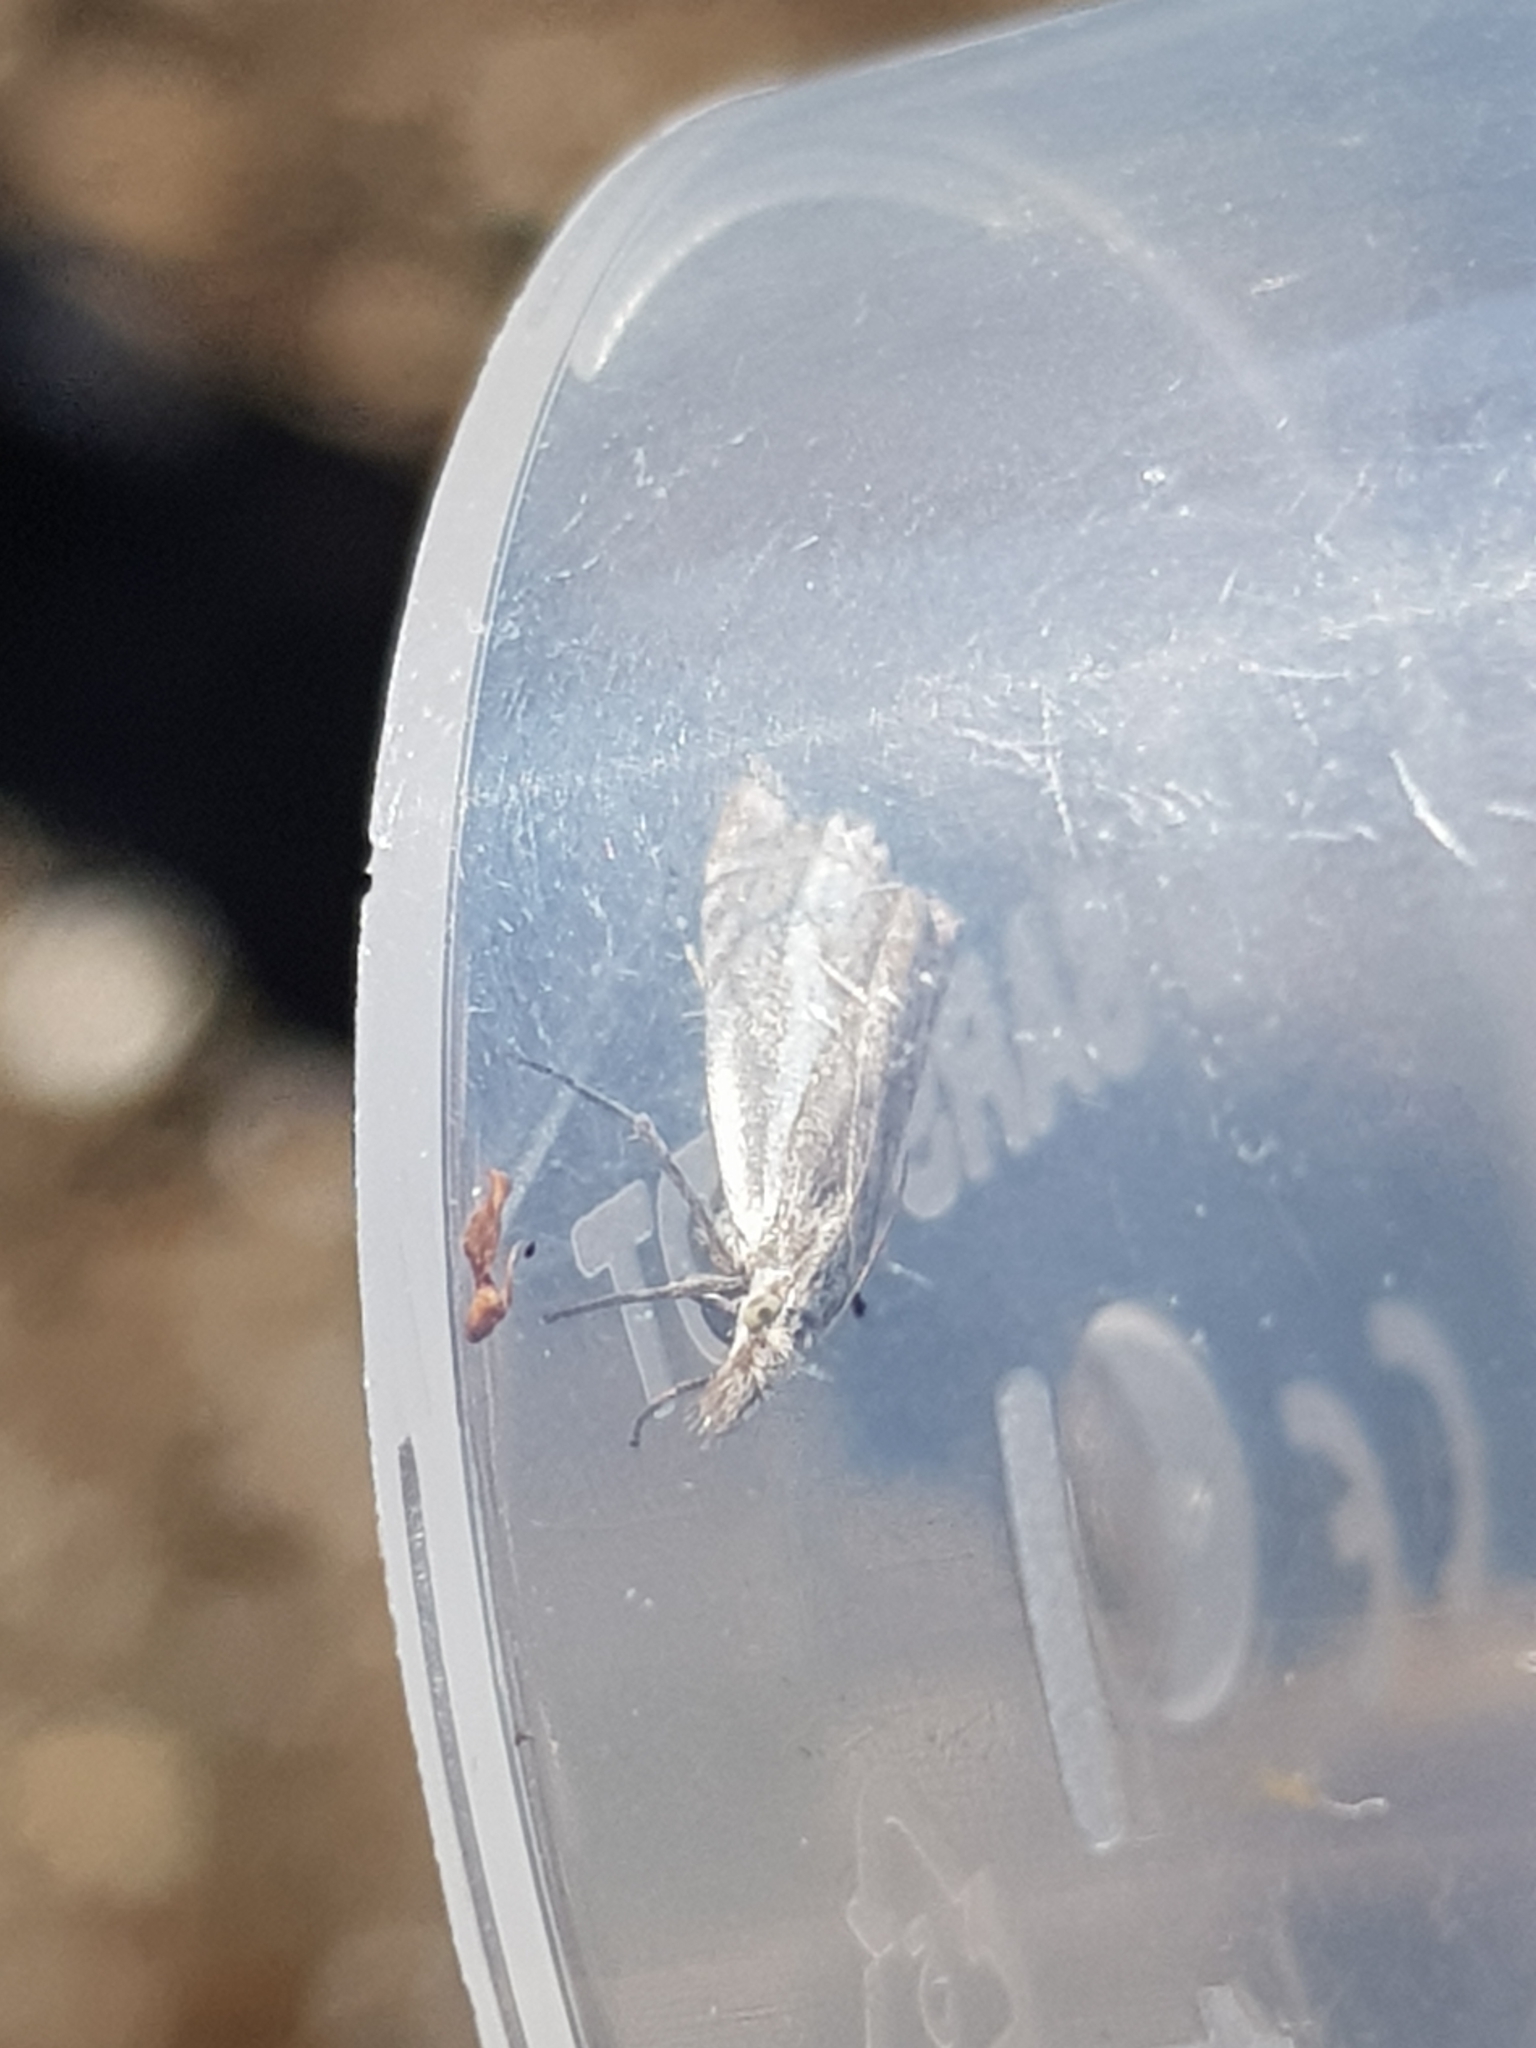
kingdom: Animalia
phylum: Arthropoda
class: Insecta
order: Lepidoptera
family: Crambidae
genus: Crambus
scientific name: Crambus nemorella
